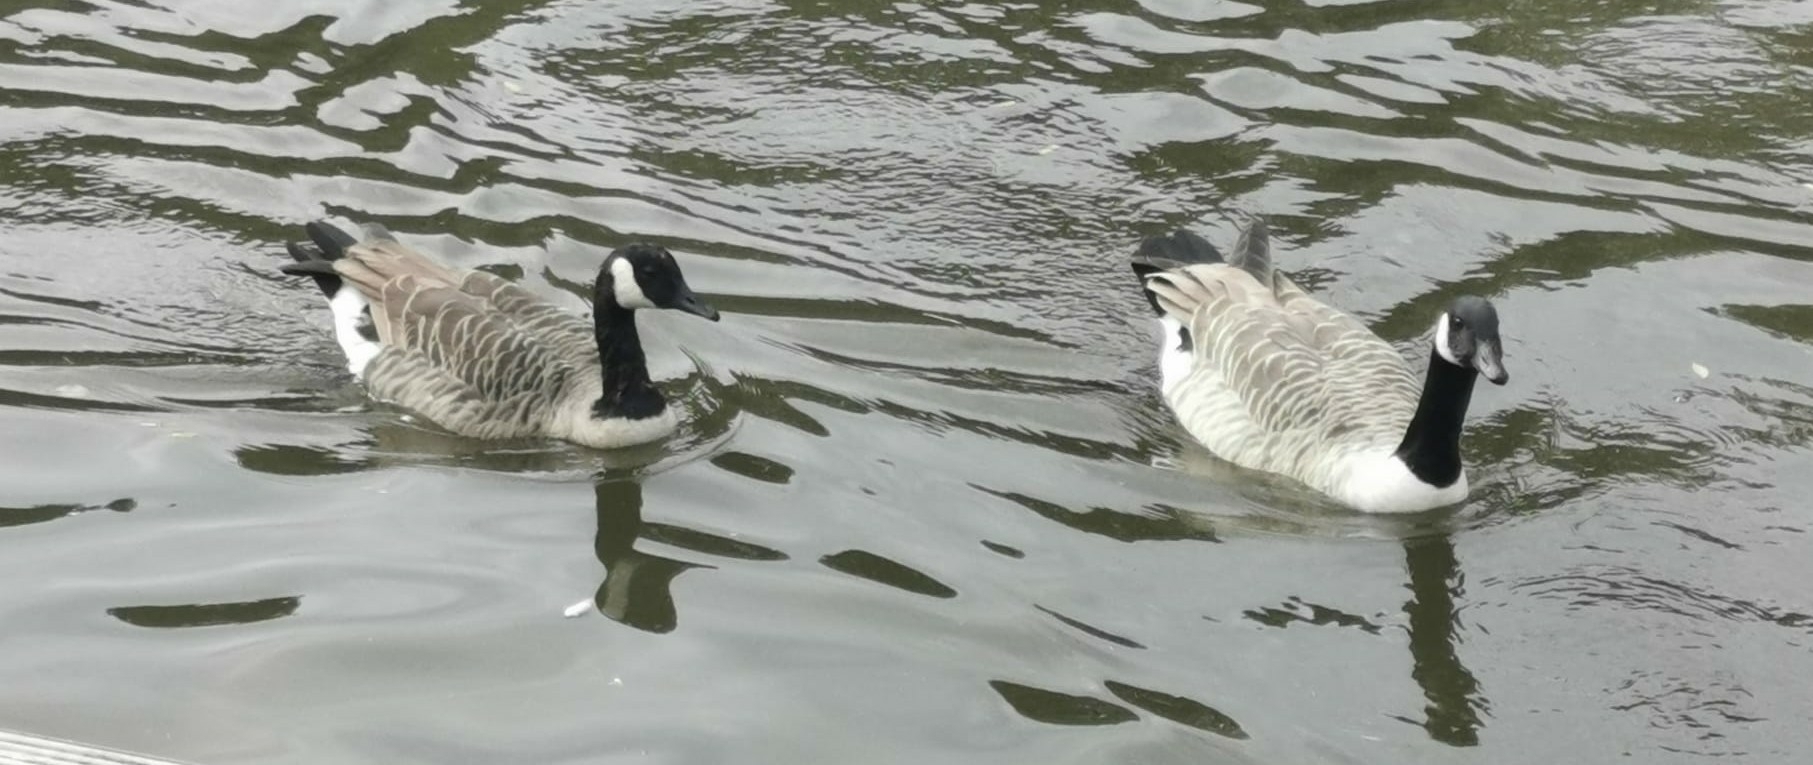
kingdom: Animalia
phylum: Chordata
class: Aves
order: Anseriformes
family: Anatidae
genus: Branta
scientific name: Branta canadensis
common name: Canada goose
